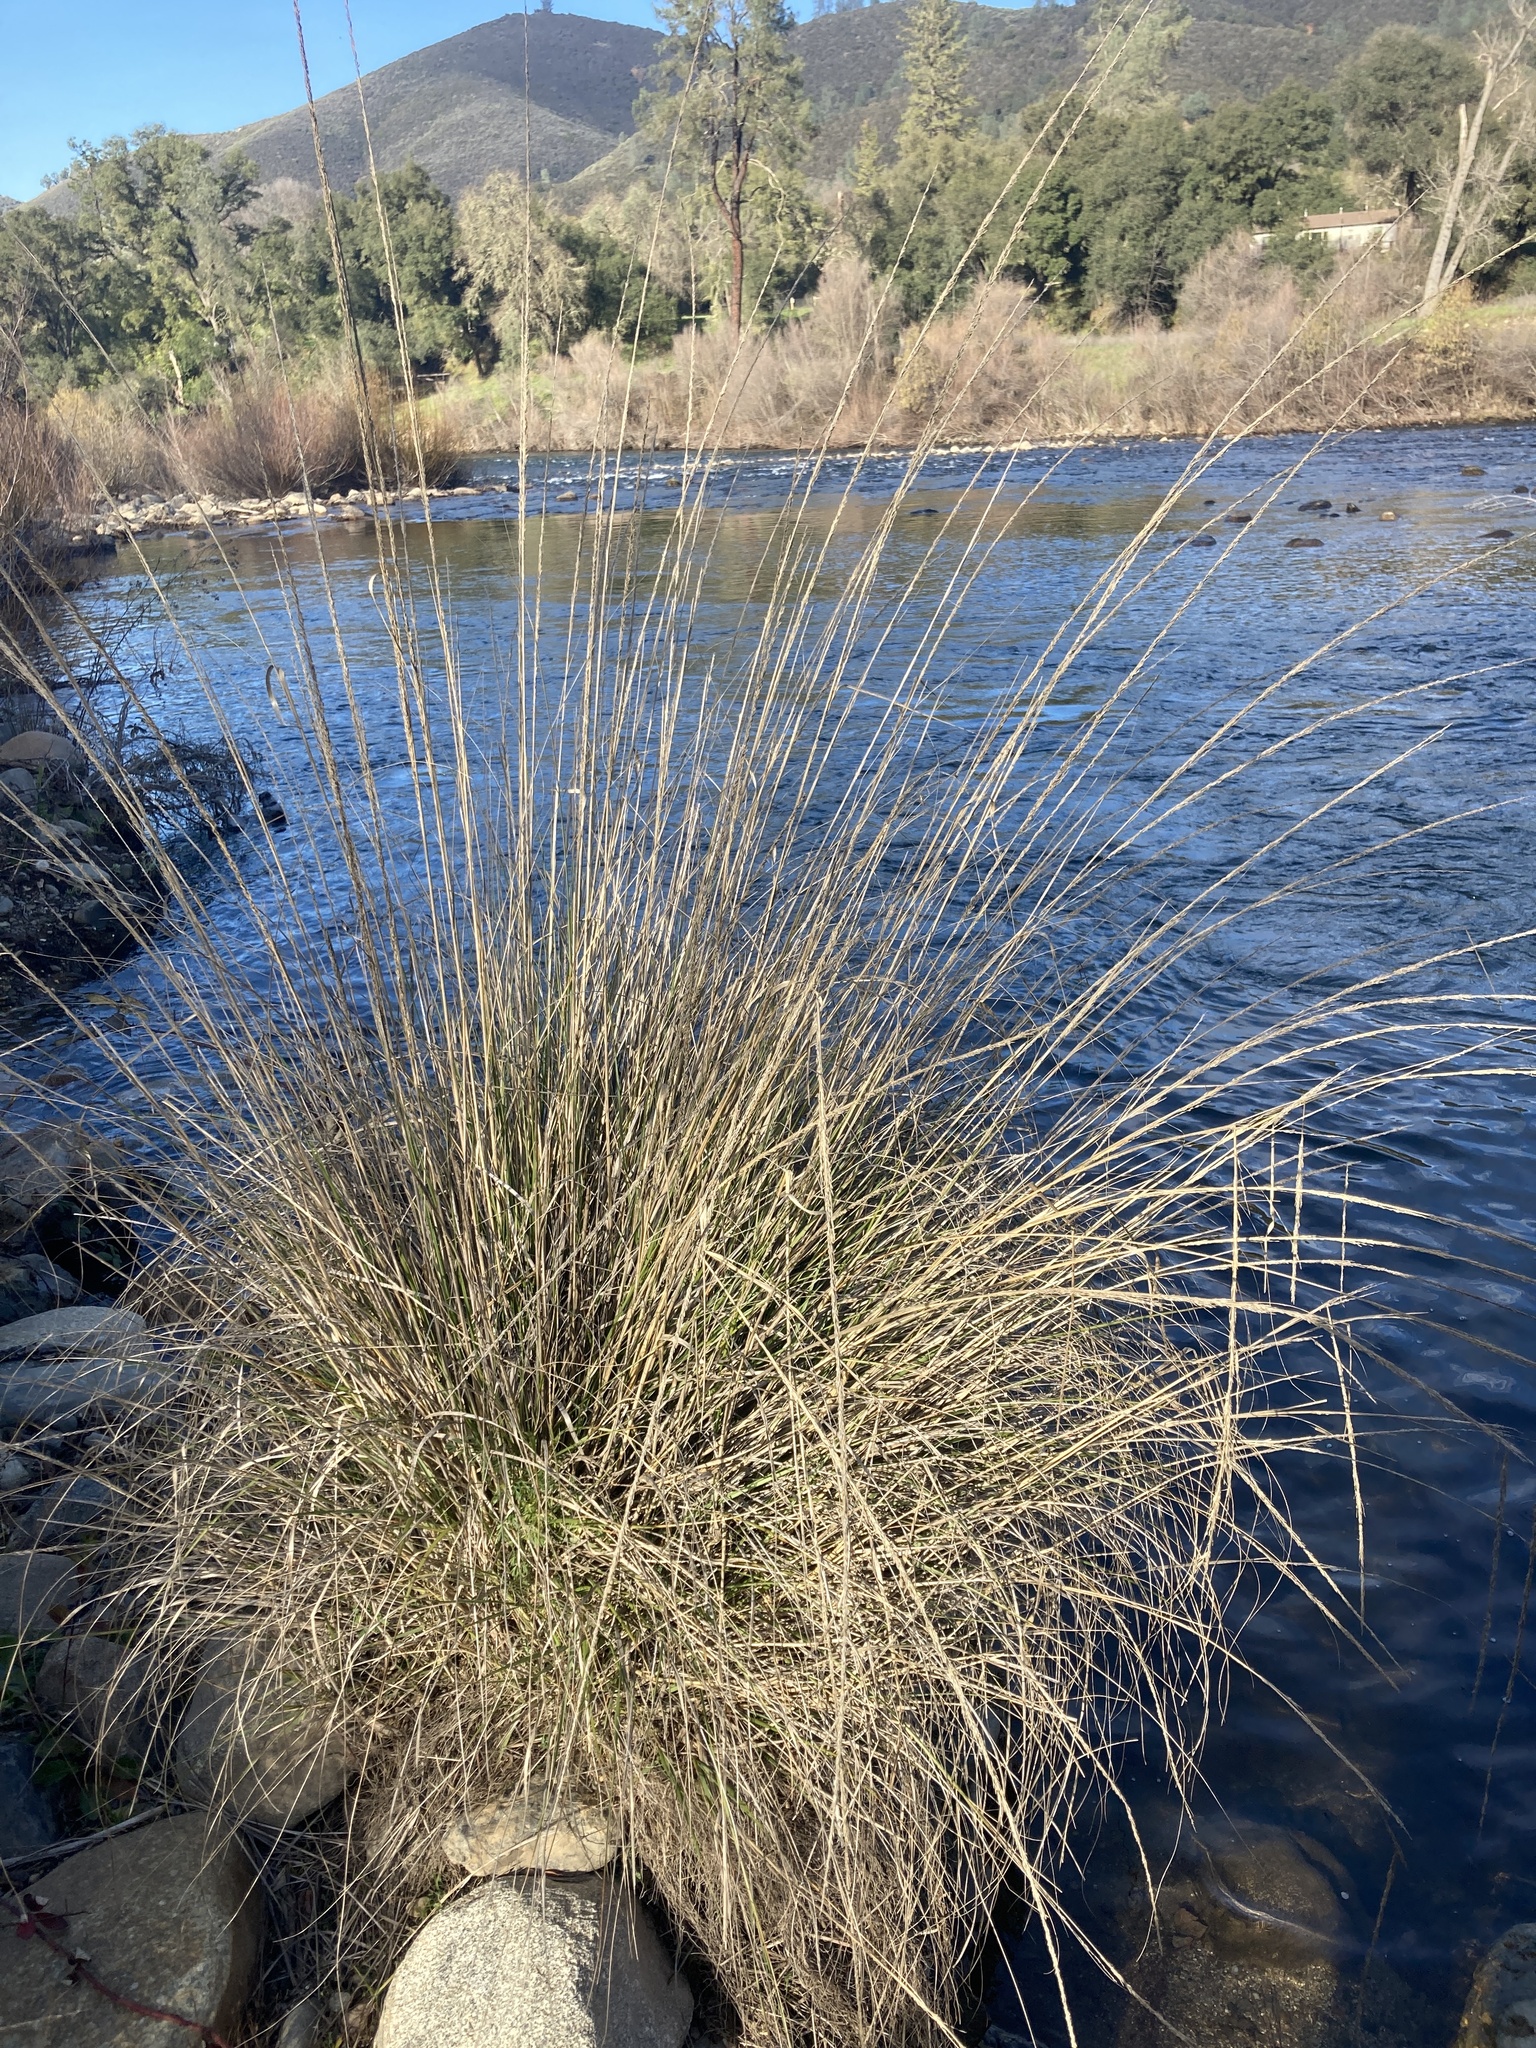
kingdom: Plantae
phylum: Tracheophyta
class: Liliopsida
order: Poales
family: Poaceae
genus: Muhlenbergia
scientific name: Muhlenbergia rigens
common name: Deer grass
